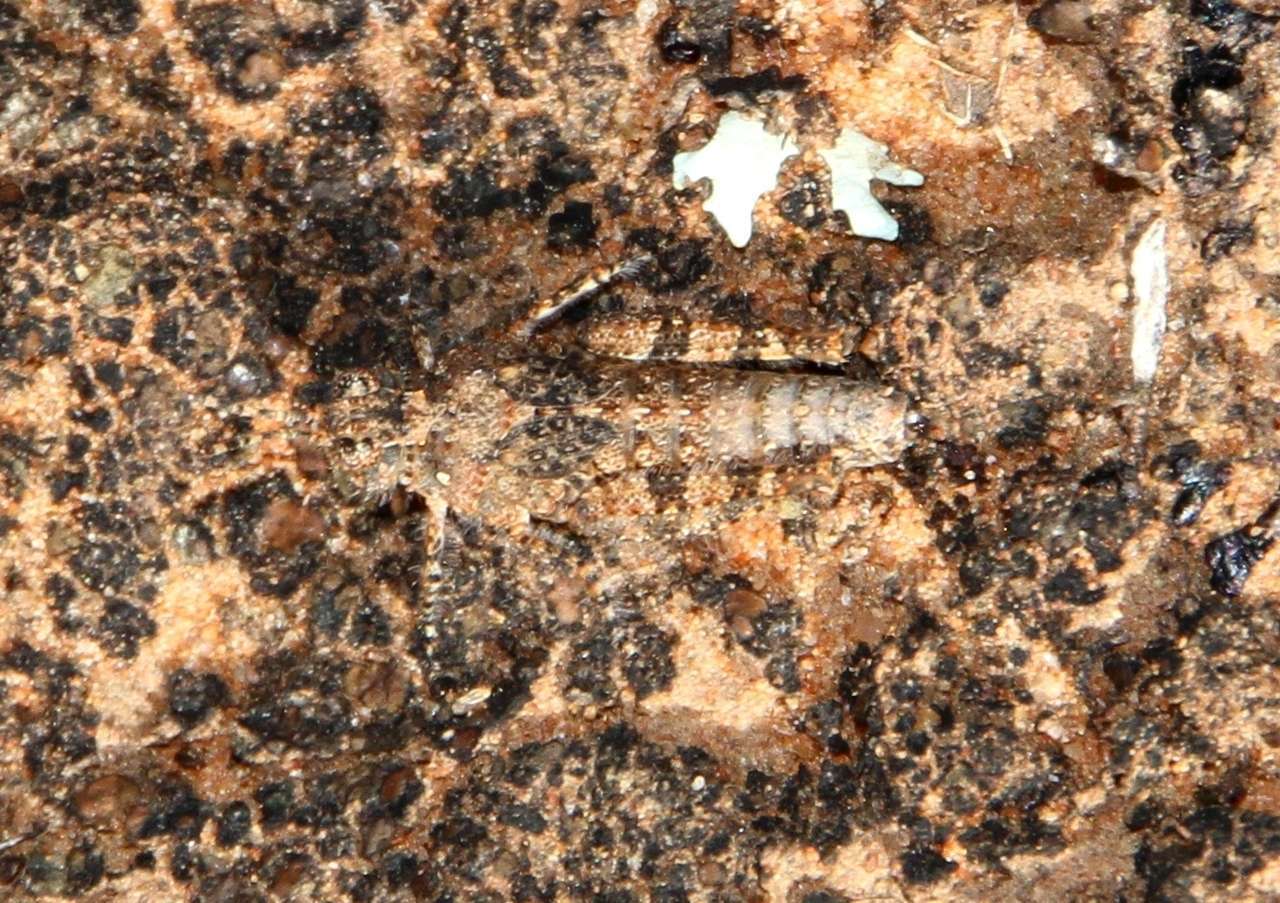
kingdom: Animalia
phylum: Arthropoda
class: Insecta
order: Orthoptera
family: Acrididae
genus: Tapesta
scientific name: Tapesta carneipes
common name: Blue-legged hairy grasshopper
